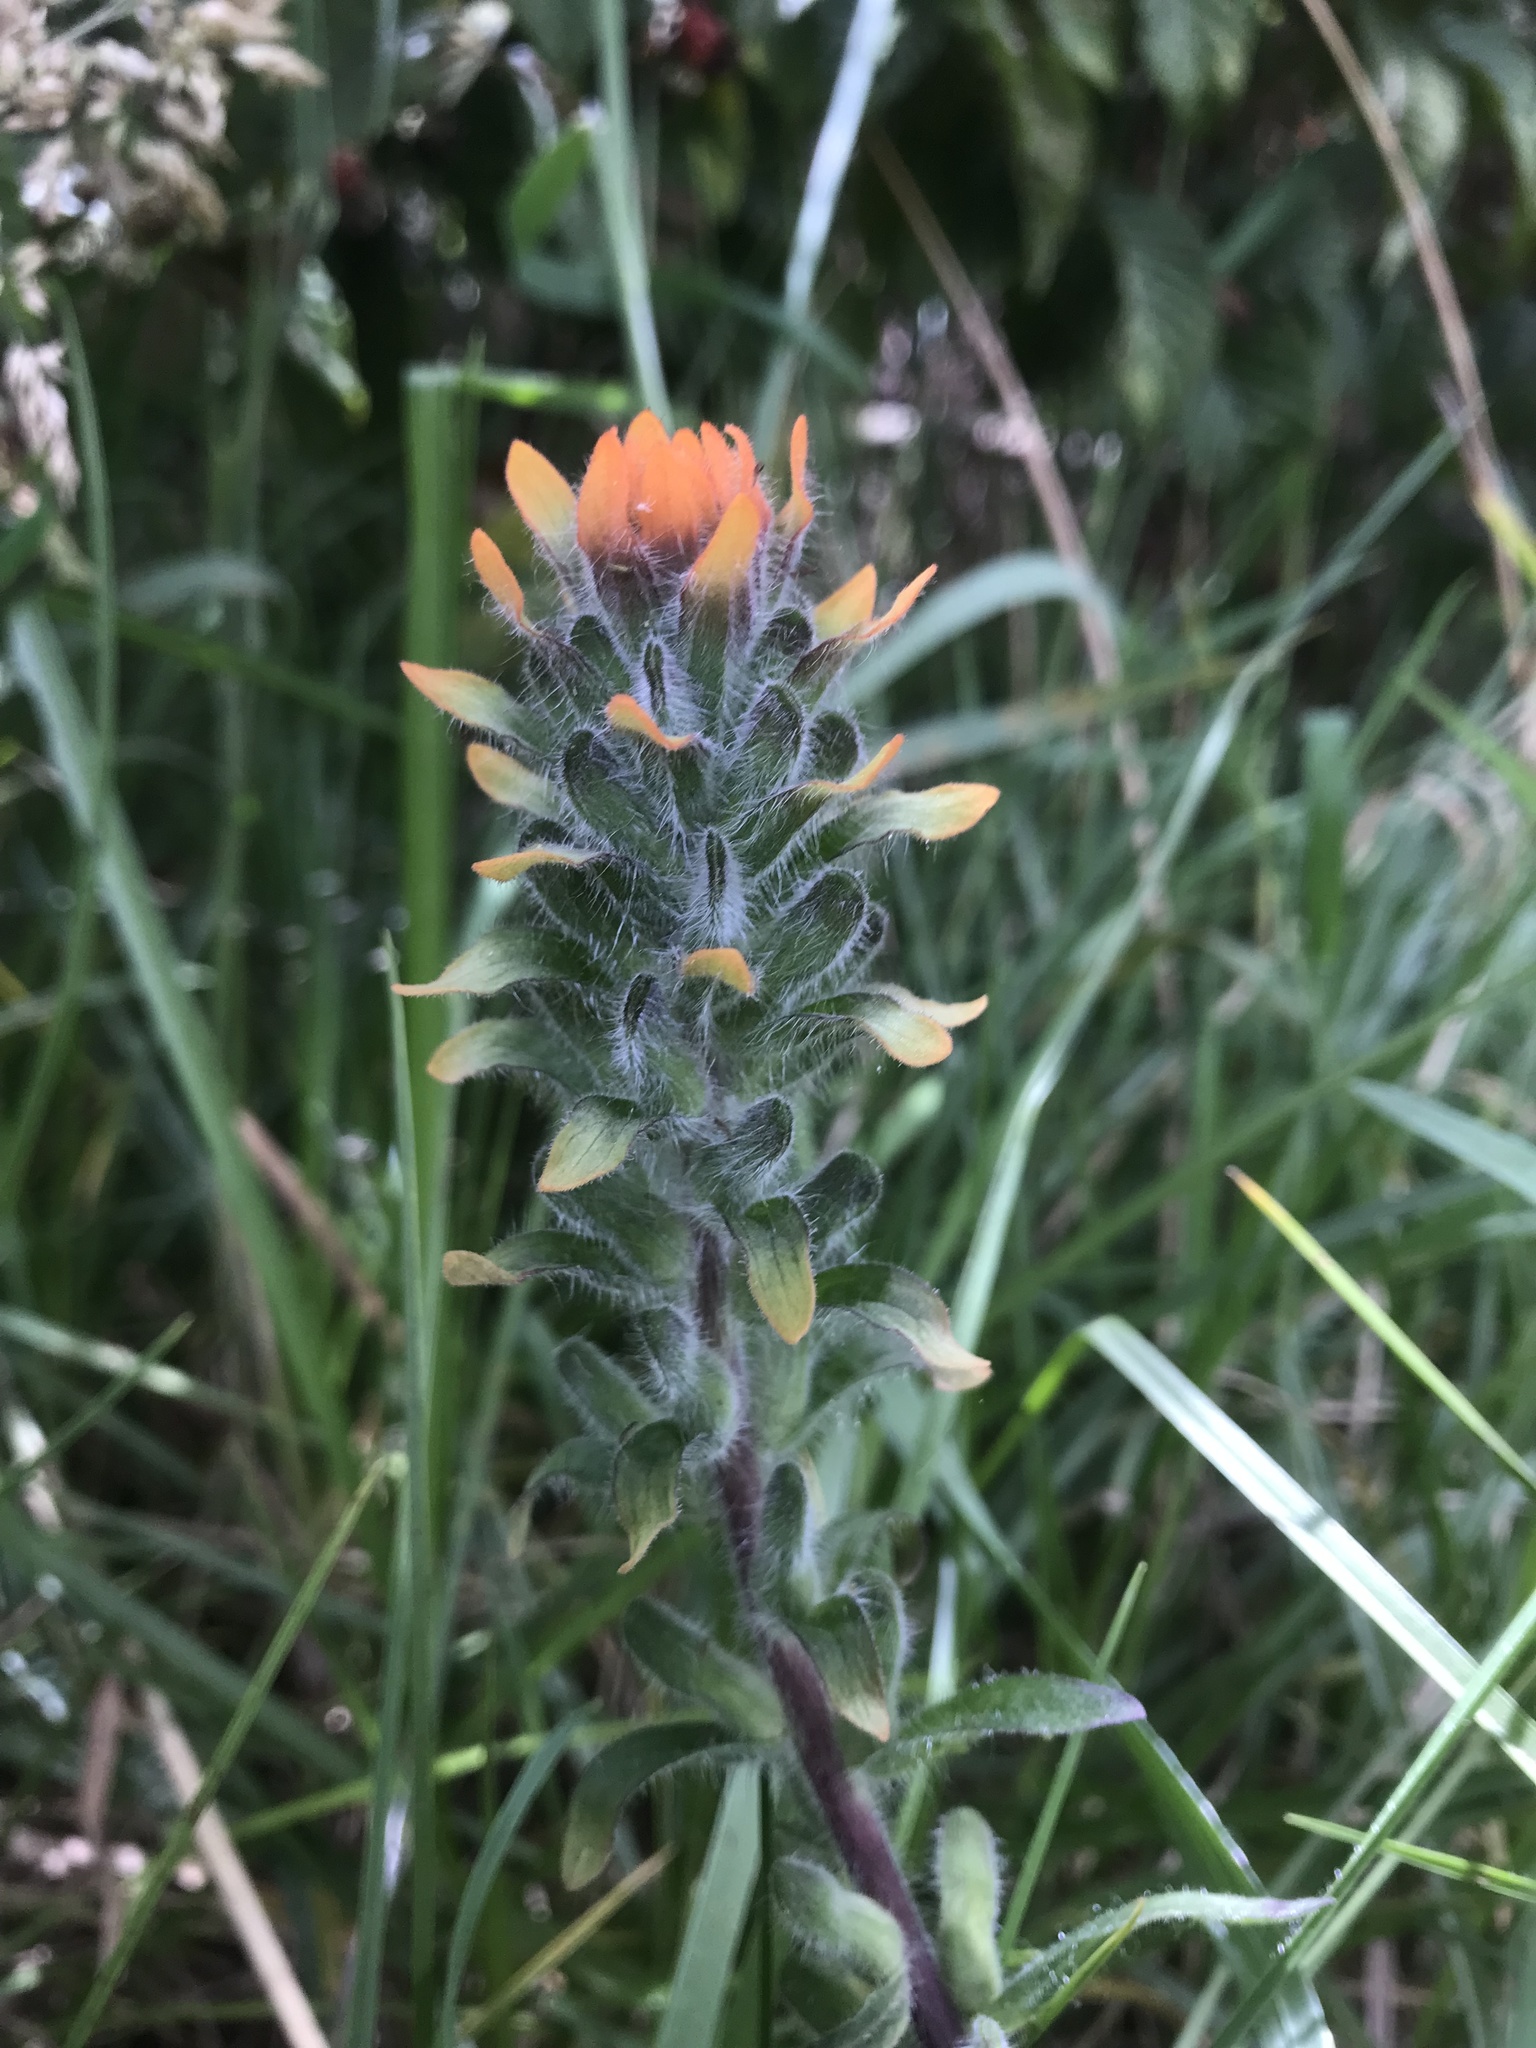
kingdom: Plantae
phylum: Tracheophyta
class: Magnoliopsida
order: Lamiales
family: Orobanchaceae
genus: Castilleja
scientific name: Castilleja arvensis
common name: Indian paintbrush
